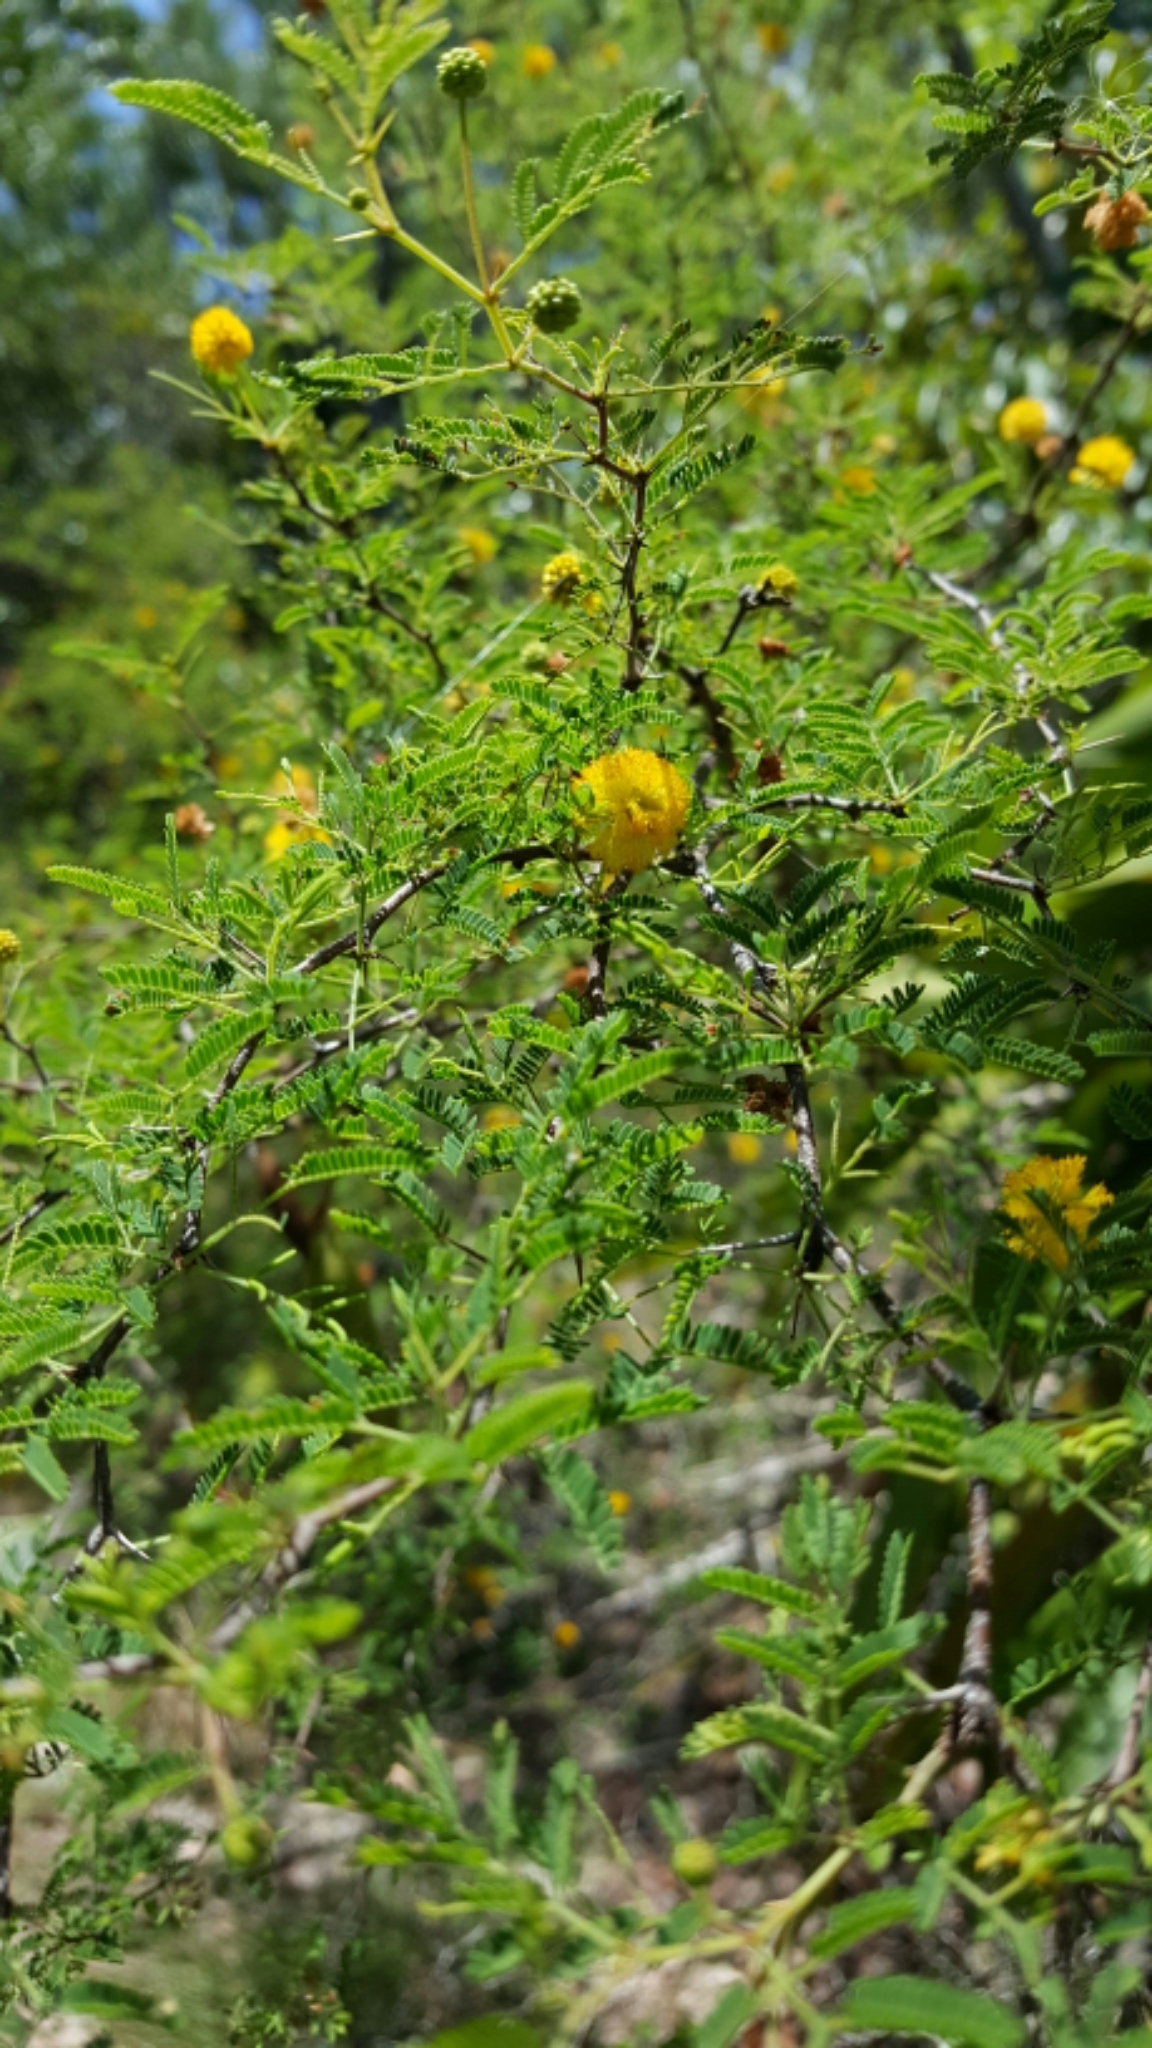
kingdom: Plantae
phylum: Tracheophyta
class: Magnoliopsida
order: Fabales
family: Fabaceae
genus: Vachellia
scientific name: Vachellia farnesiana
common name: Sweet acacia
